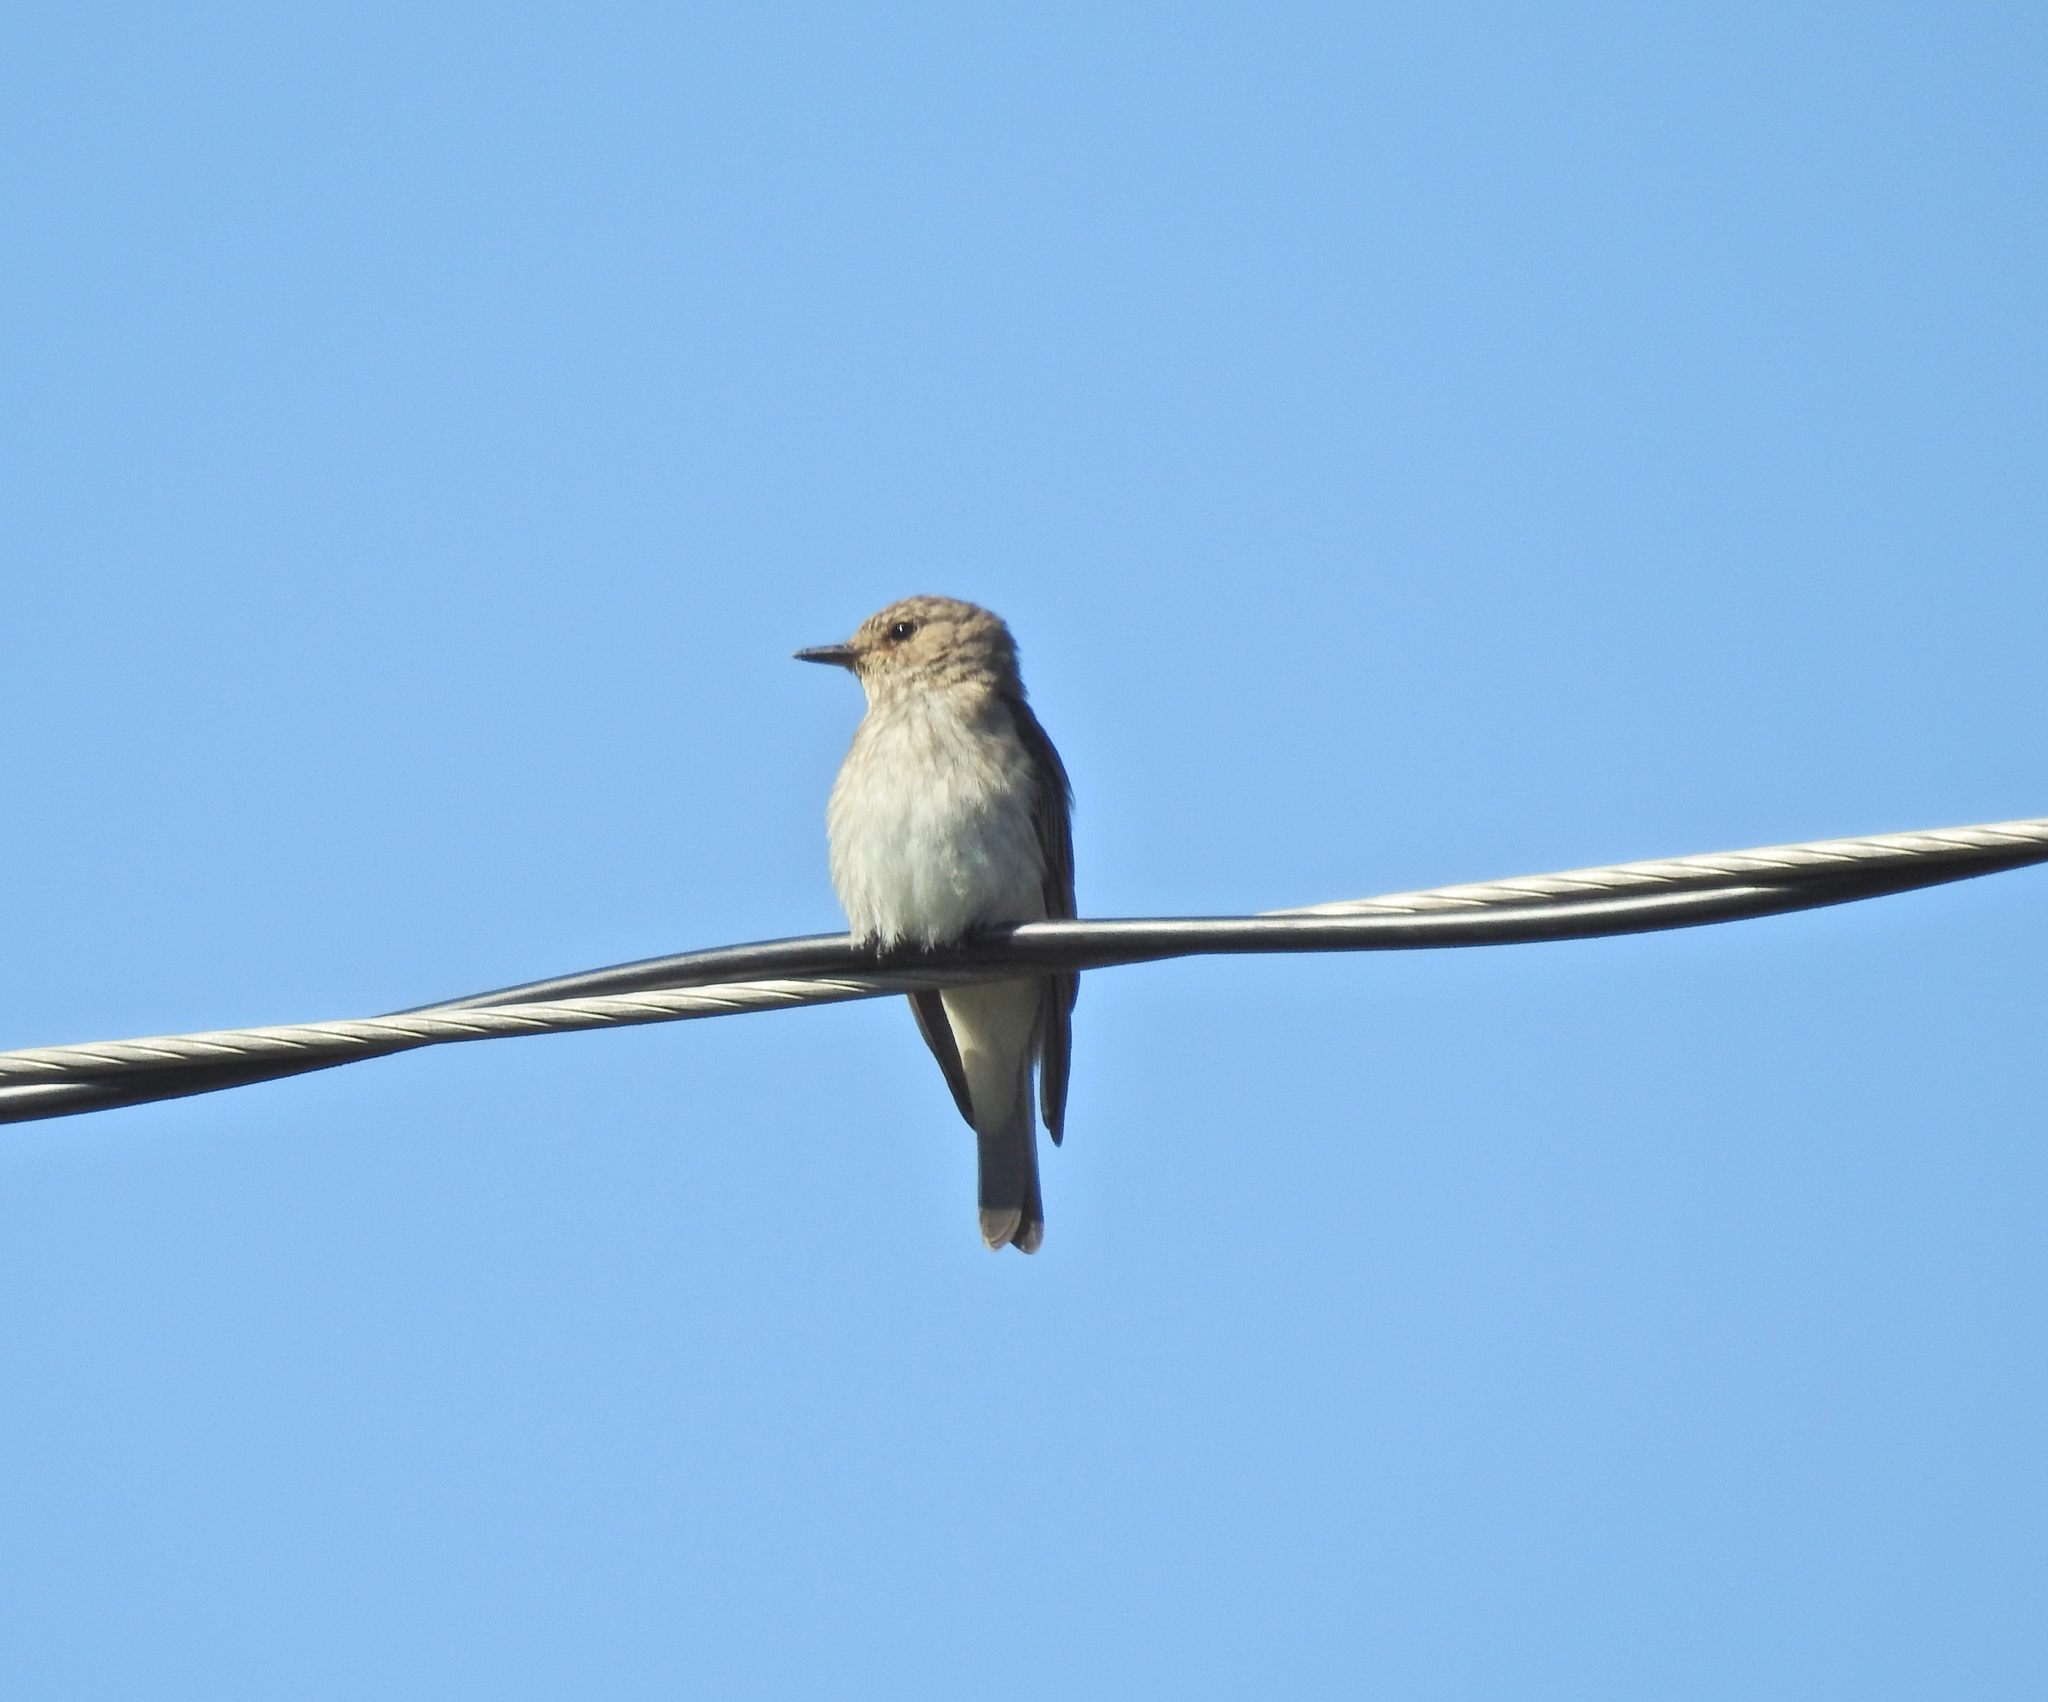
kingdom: Animalia
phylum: Chordata
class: Aves
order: Passeriformes
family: Muscicapidae
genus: Muscicapa
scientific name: Muscicapa striata
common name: Spotted flycatcher
